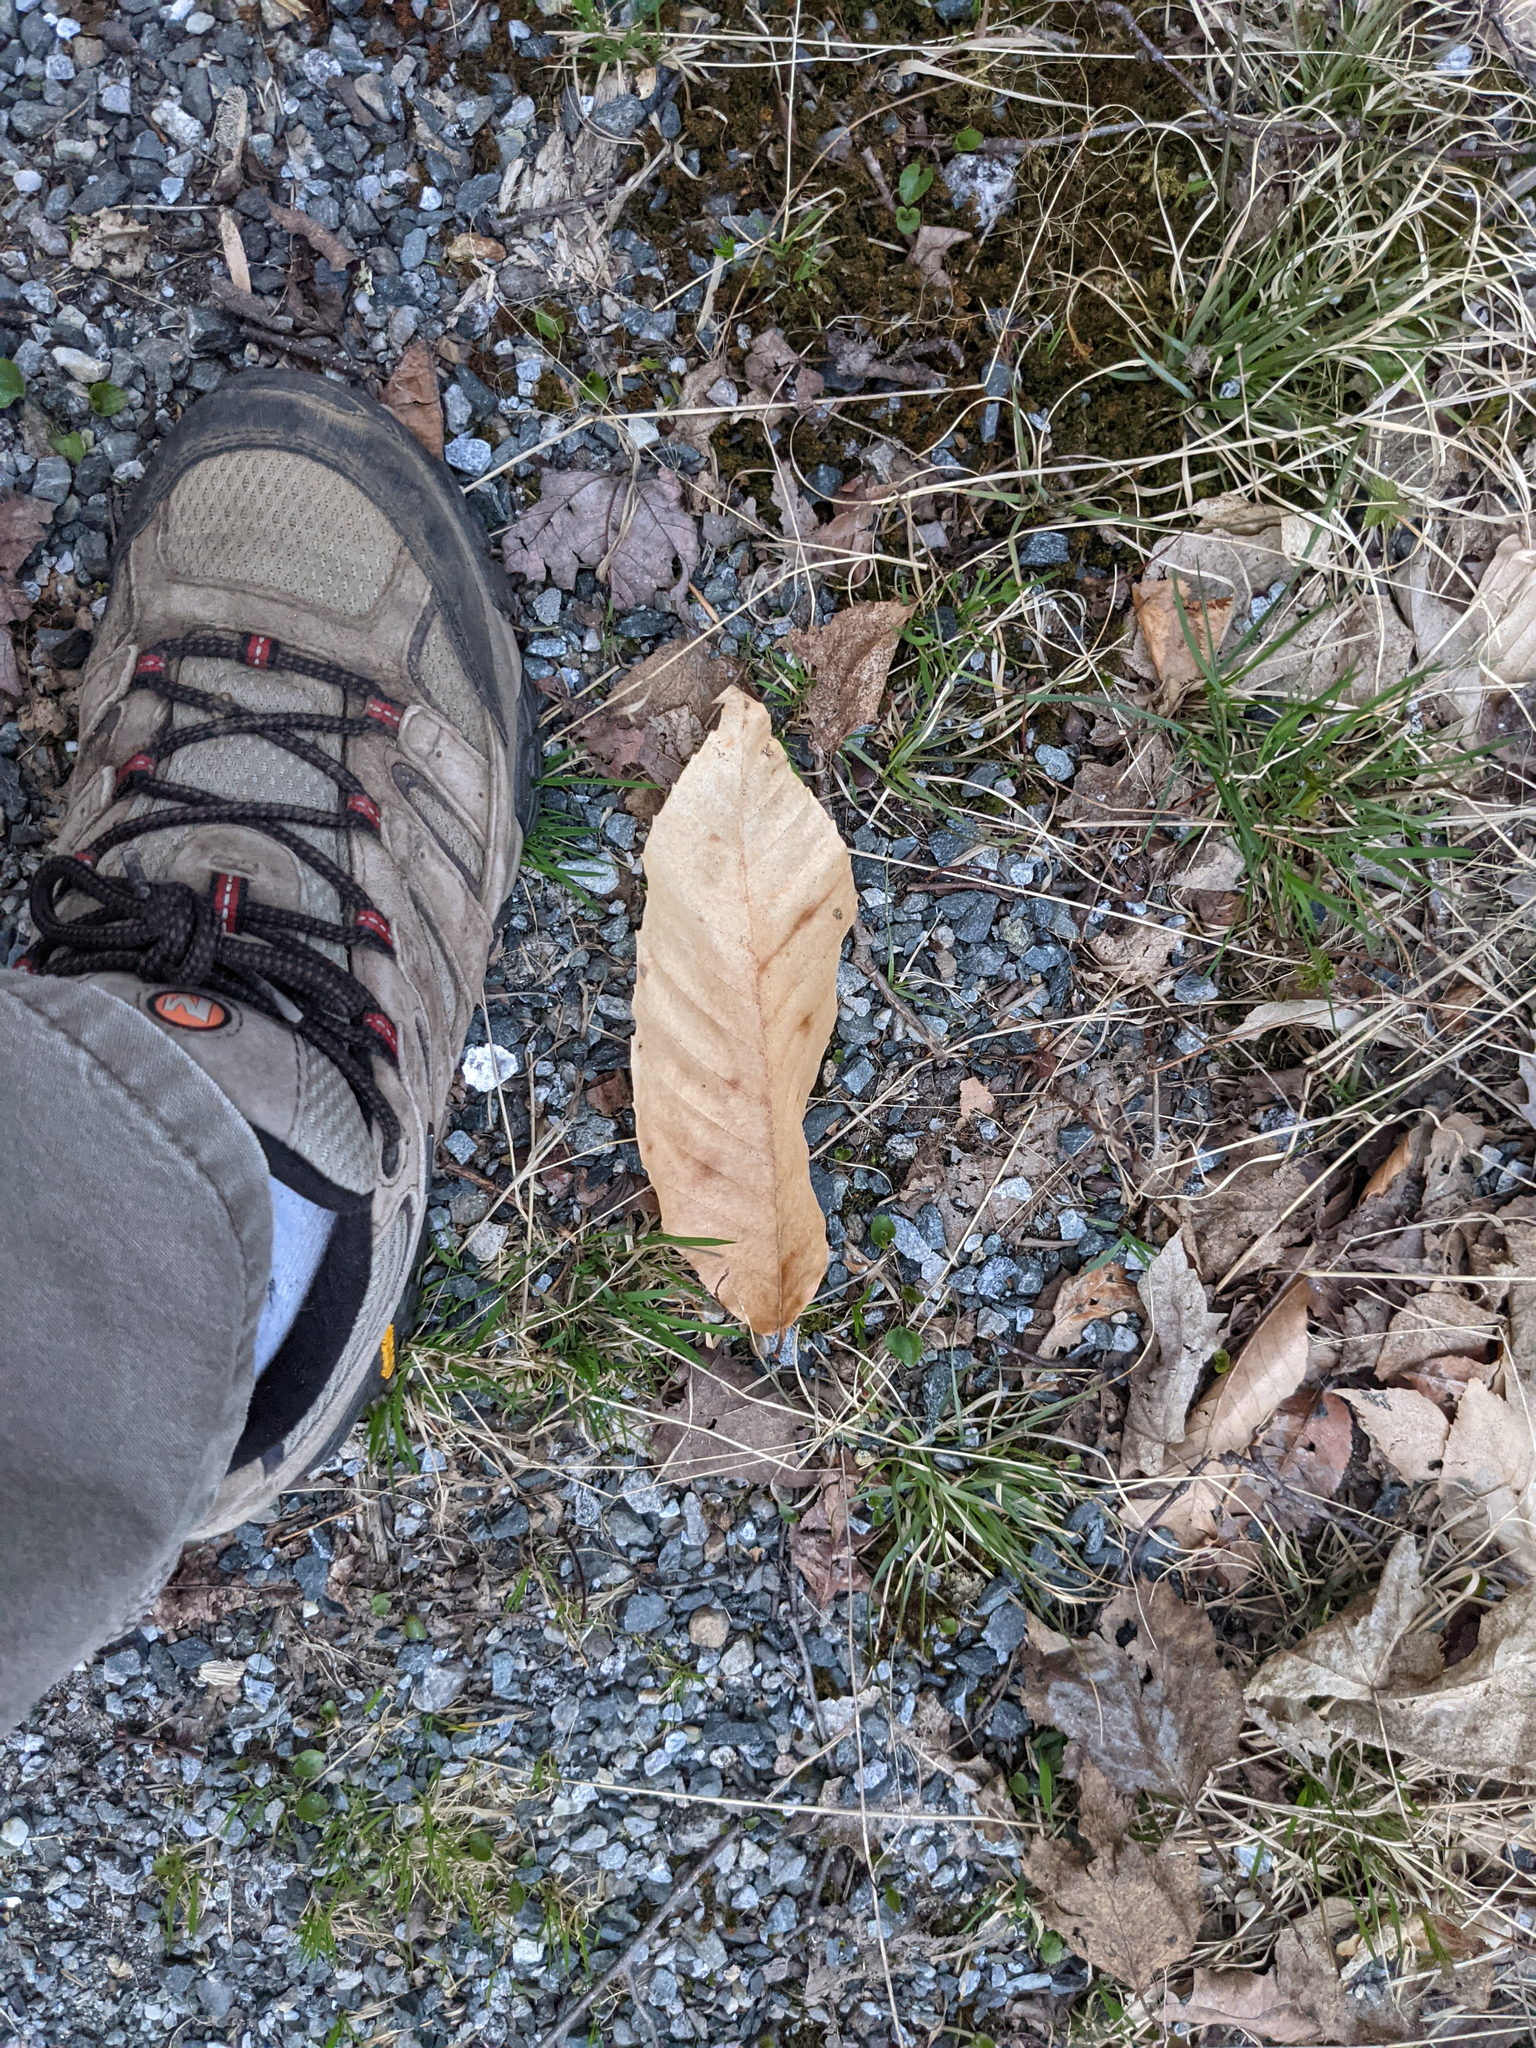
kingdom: Plantae
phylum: Tracheophyta
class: Magnoliopsida
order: Fagales
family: Fagaceae
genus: Fagus
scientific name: Fagus grandifolia
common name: American beech
